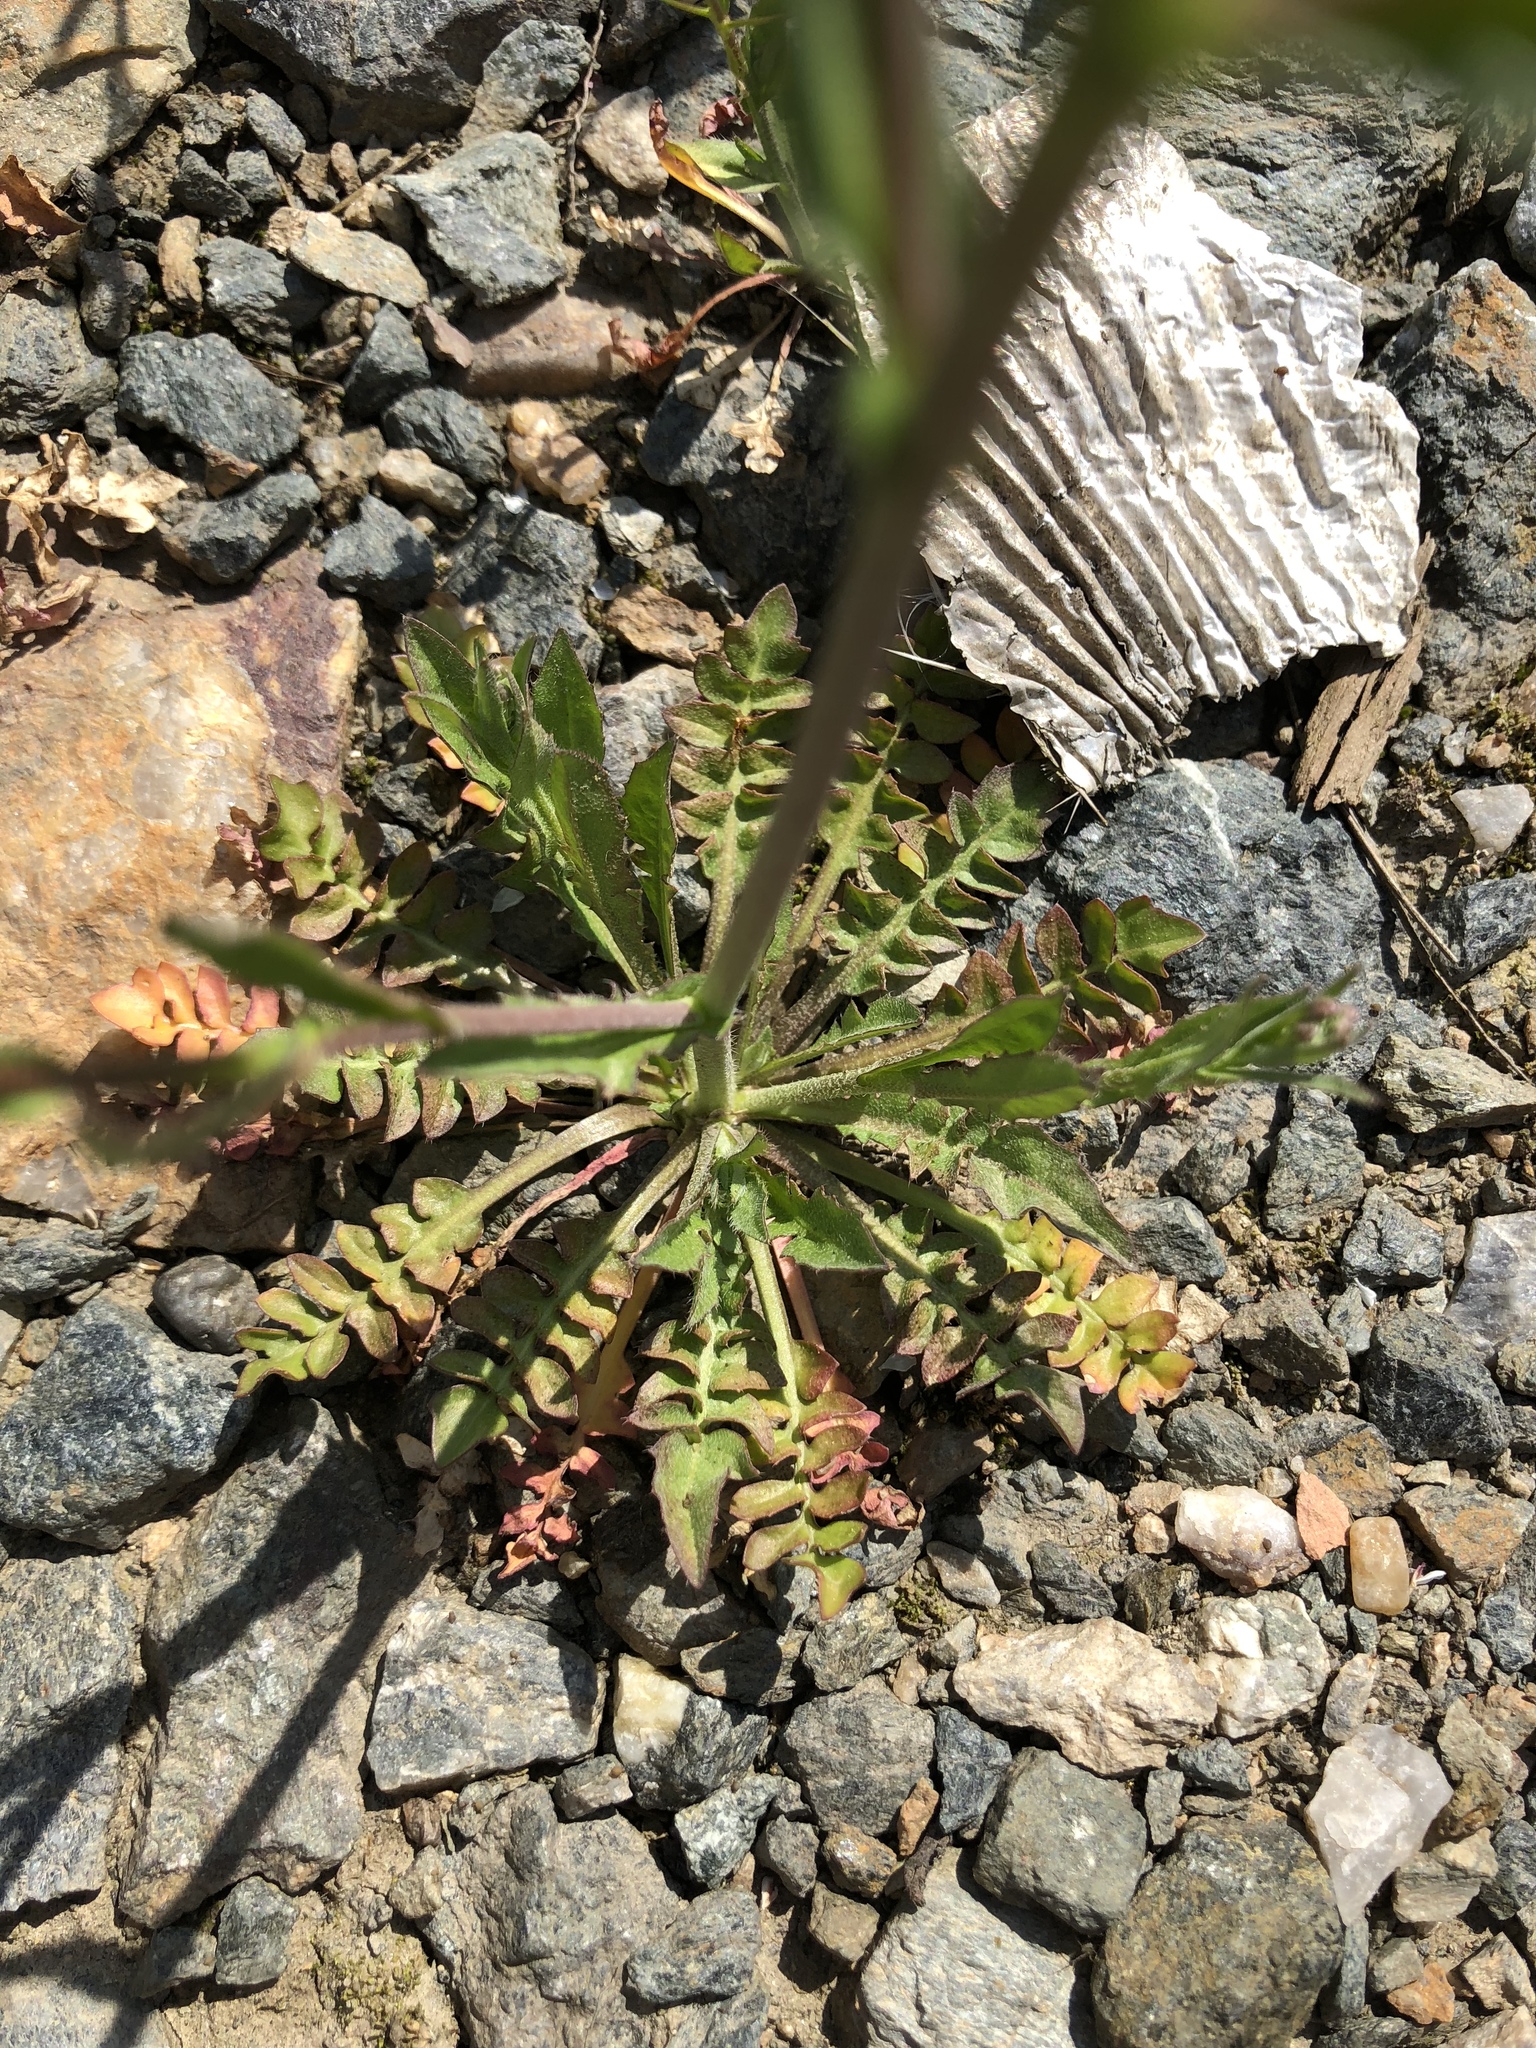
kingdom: Plantae
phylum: Tracheophyta
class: Magnoliopsida
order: Brassicales
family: Brassicaceae
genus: Capsella
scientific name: Capsella bursa-pastoris
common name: Shepherd's purse
